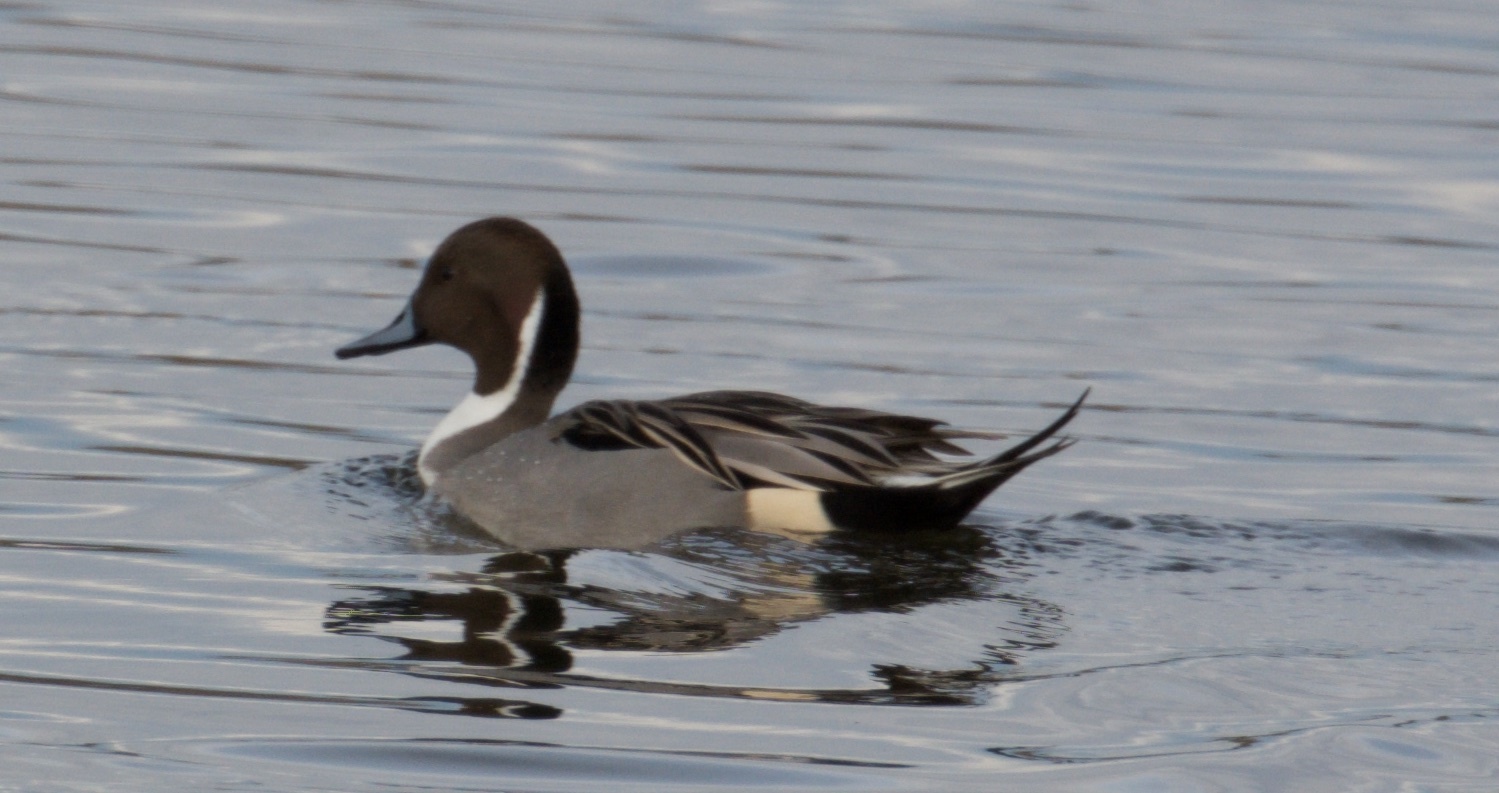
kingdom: Animalia
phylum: Chordata
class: Aves
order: Anseriformes
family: Anatidae
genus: Anas
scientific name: Anas acuta
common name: Northern pintail
